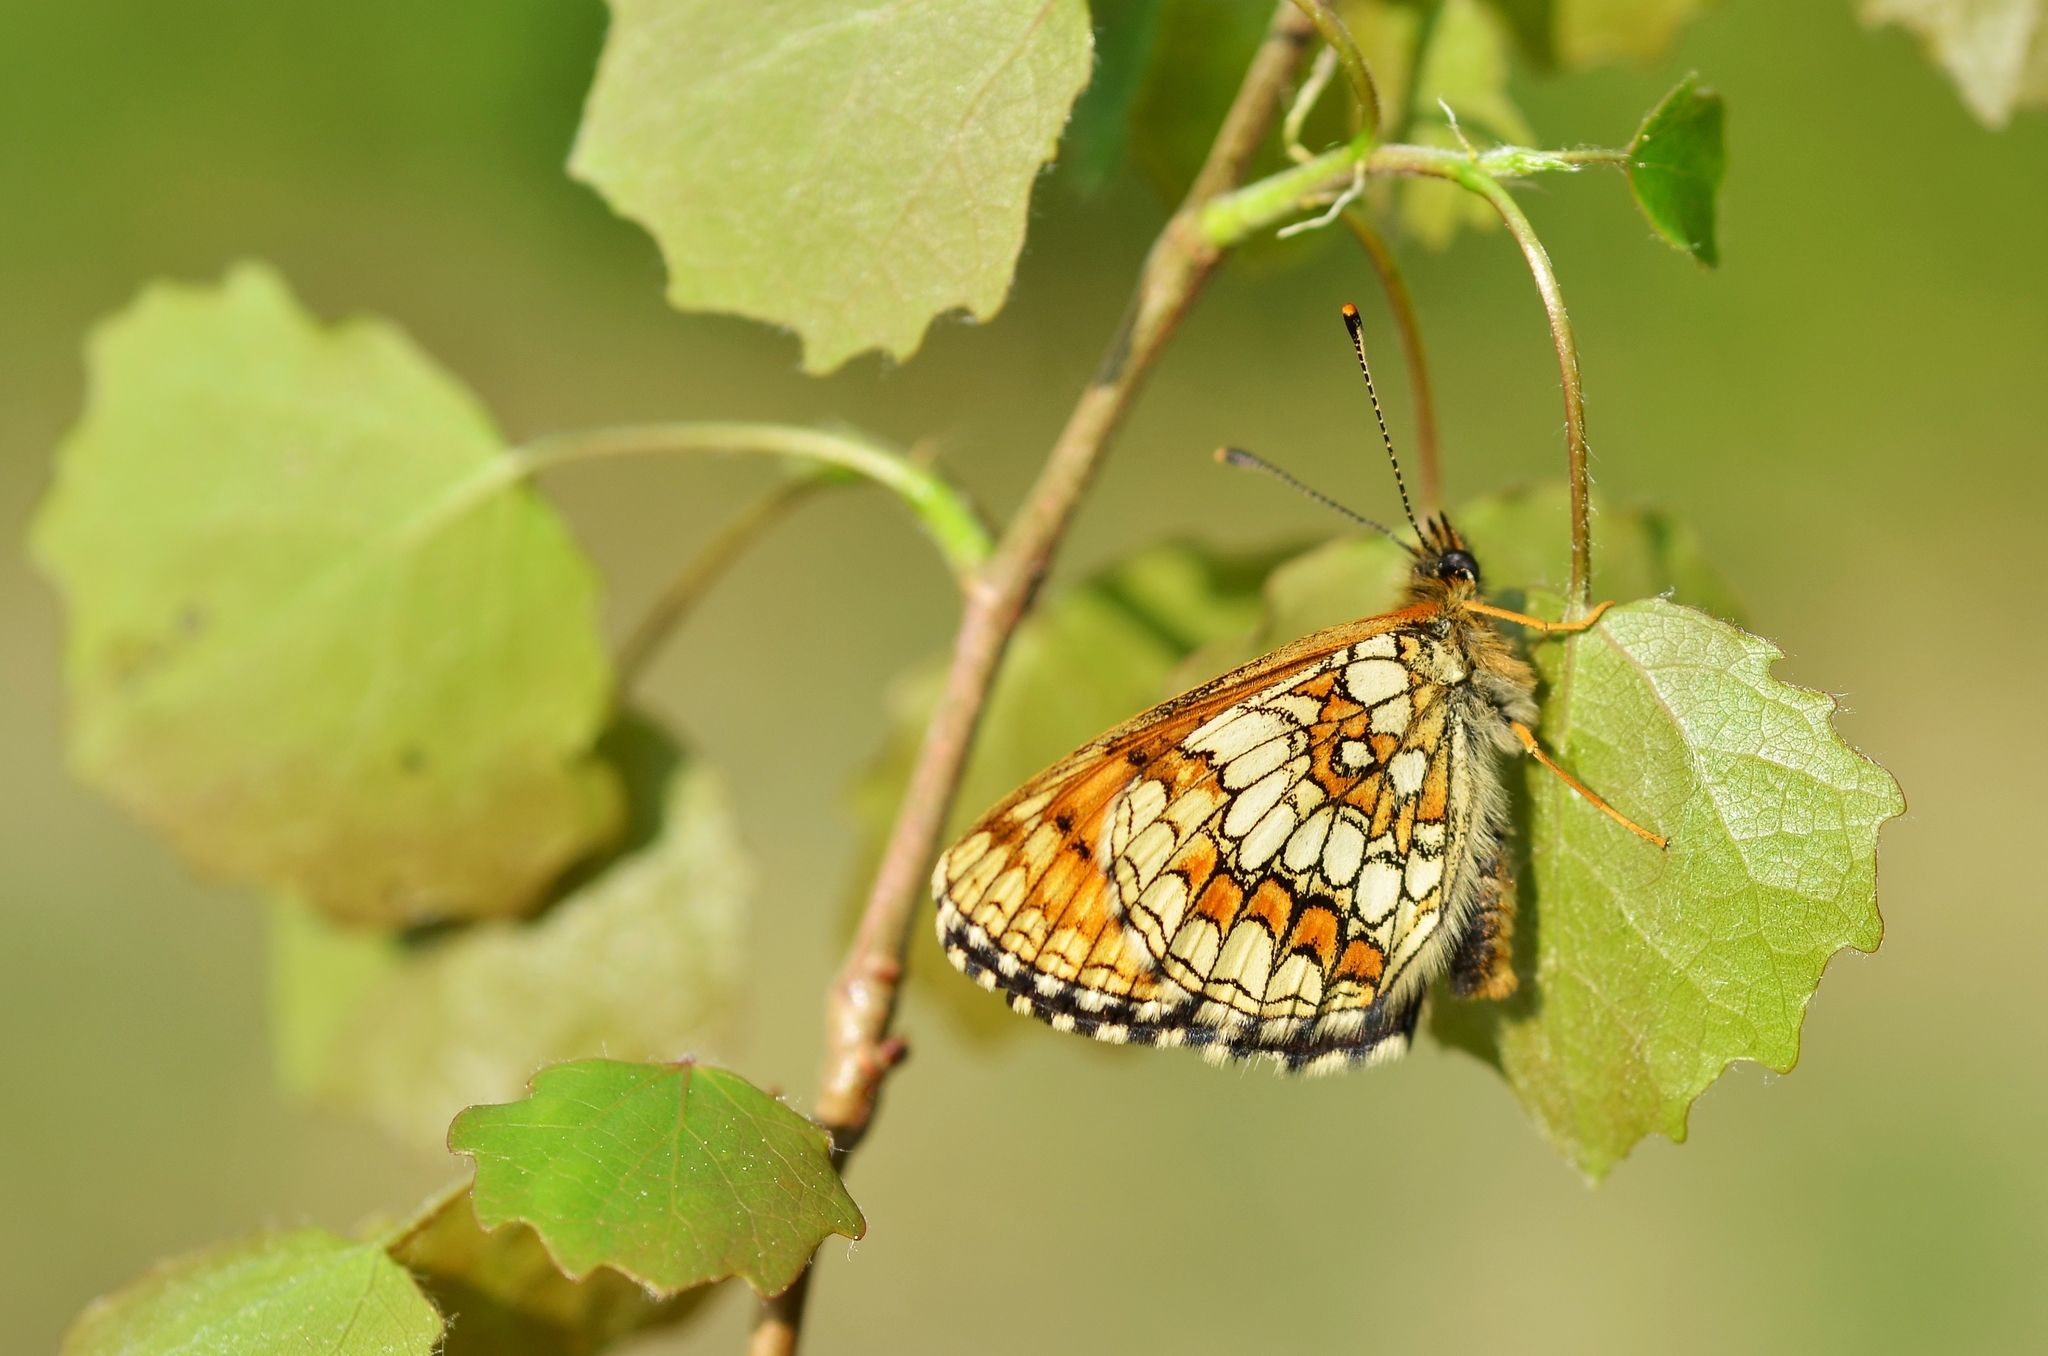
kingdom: Animalia
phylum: Arthropoda
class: Insecta
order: Lepidoptera
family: Nymphalidae
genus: Melitaea
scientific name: Melitaea athalia
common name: Heath fritillary
